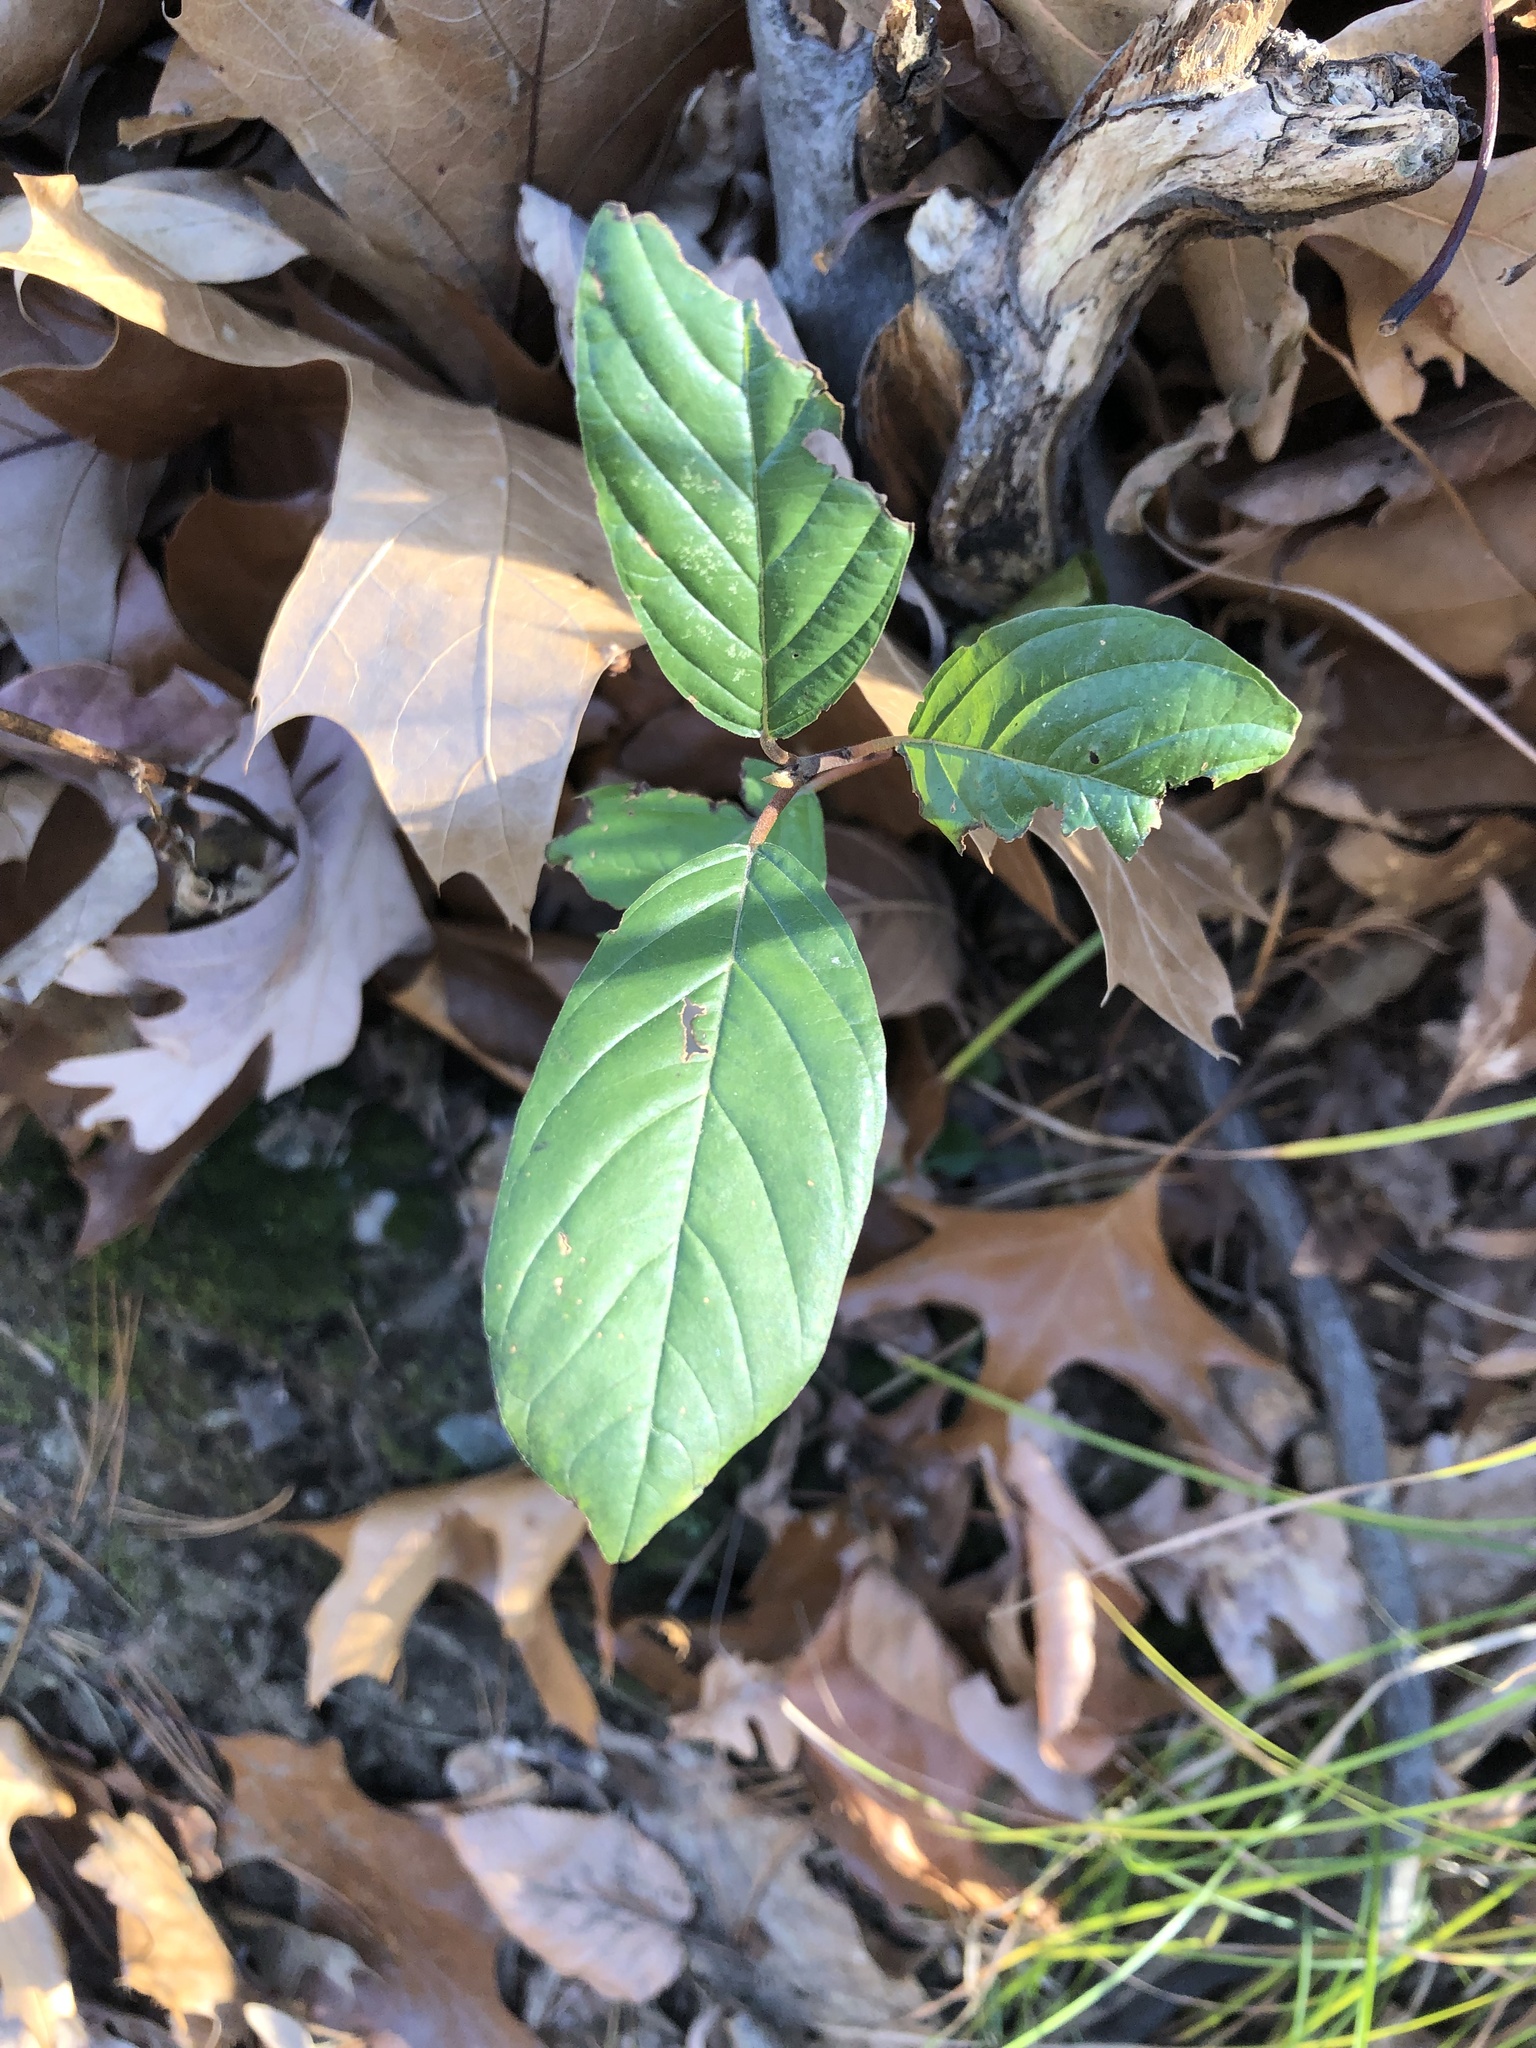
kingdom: Plantae
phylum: Tracheophyta
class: Magnoliopsida
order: Rosales
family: Rhamnaceae
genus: Frangula
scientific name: Frangula alnus
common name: Alder buckthorn
